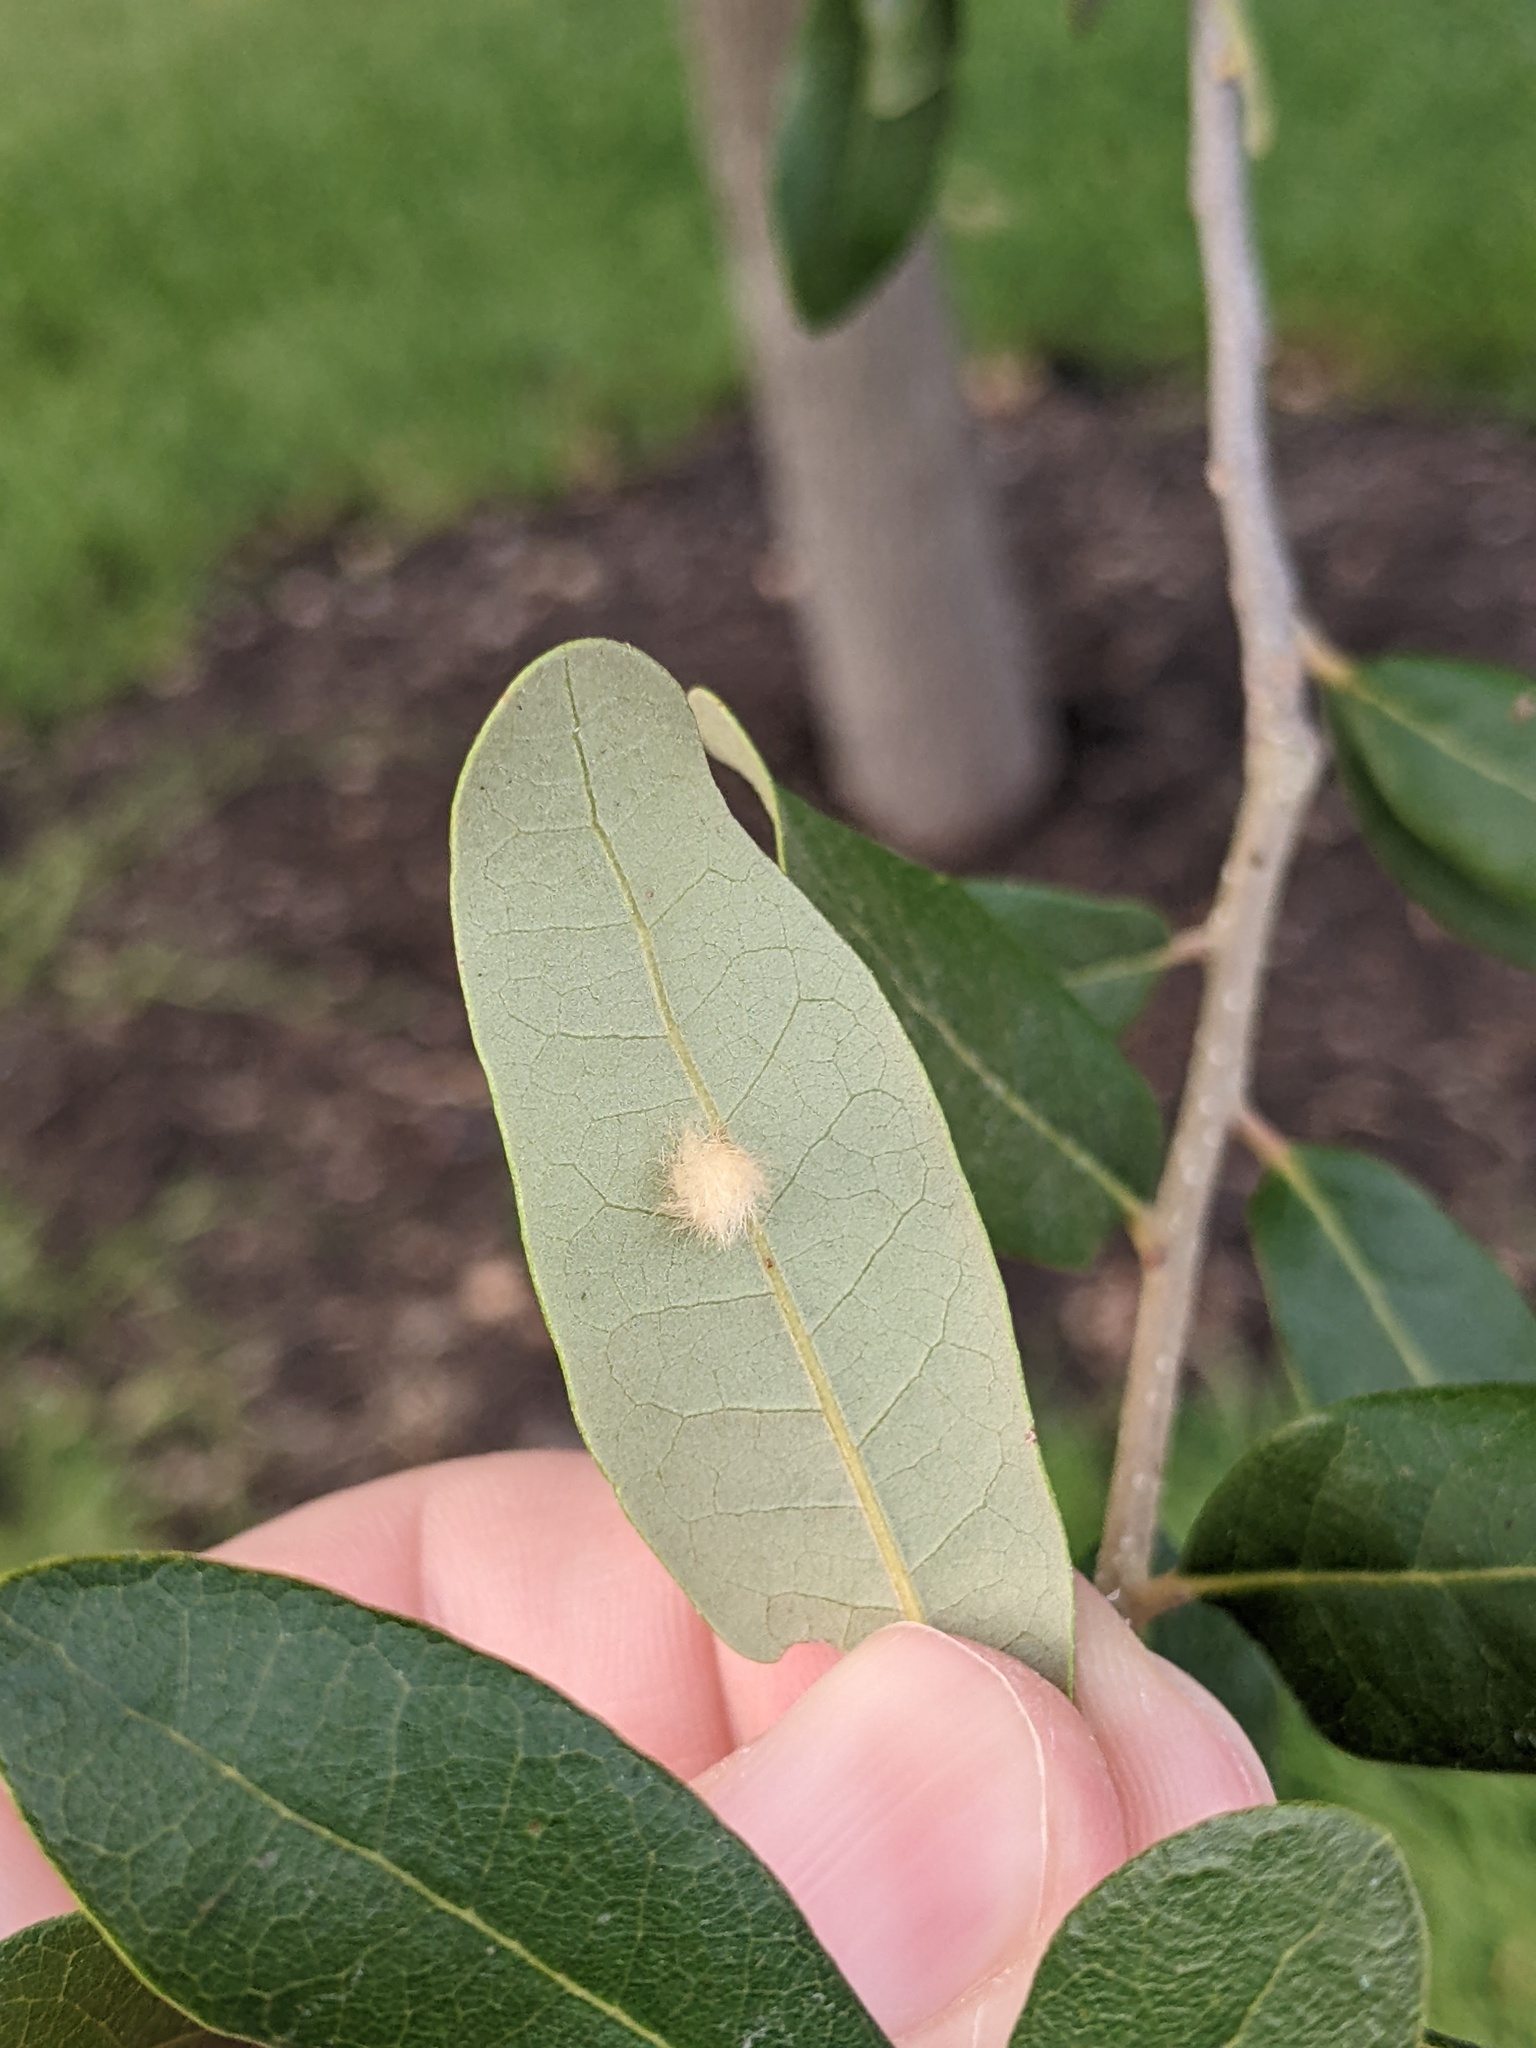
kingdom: Animalia
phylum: Arthropoda
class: Insecta
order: Hymenoptera
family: Cynipidae
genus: Andricus
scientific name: Andricus Druon quercuslanigerum
